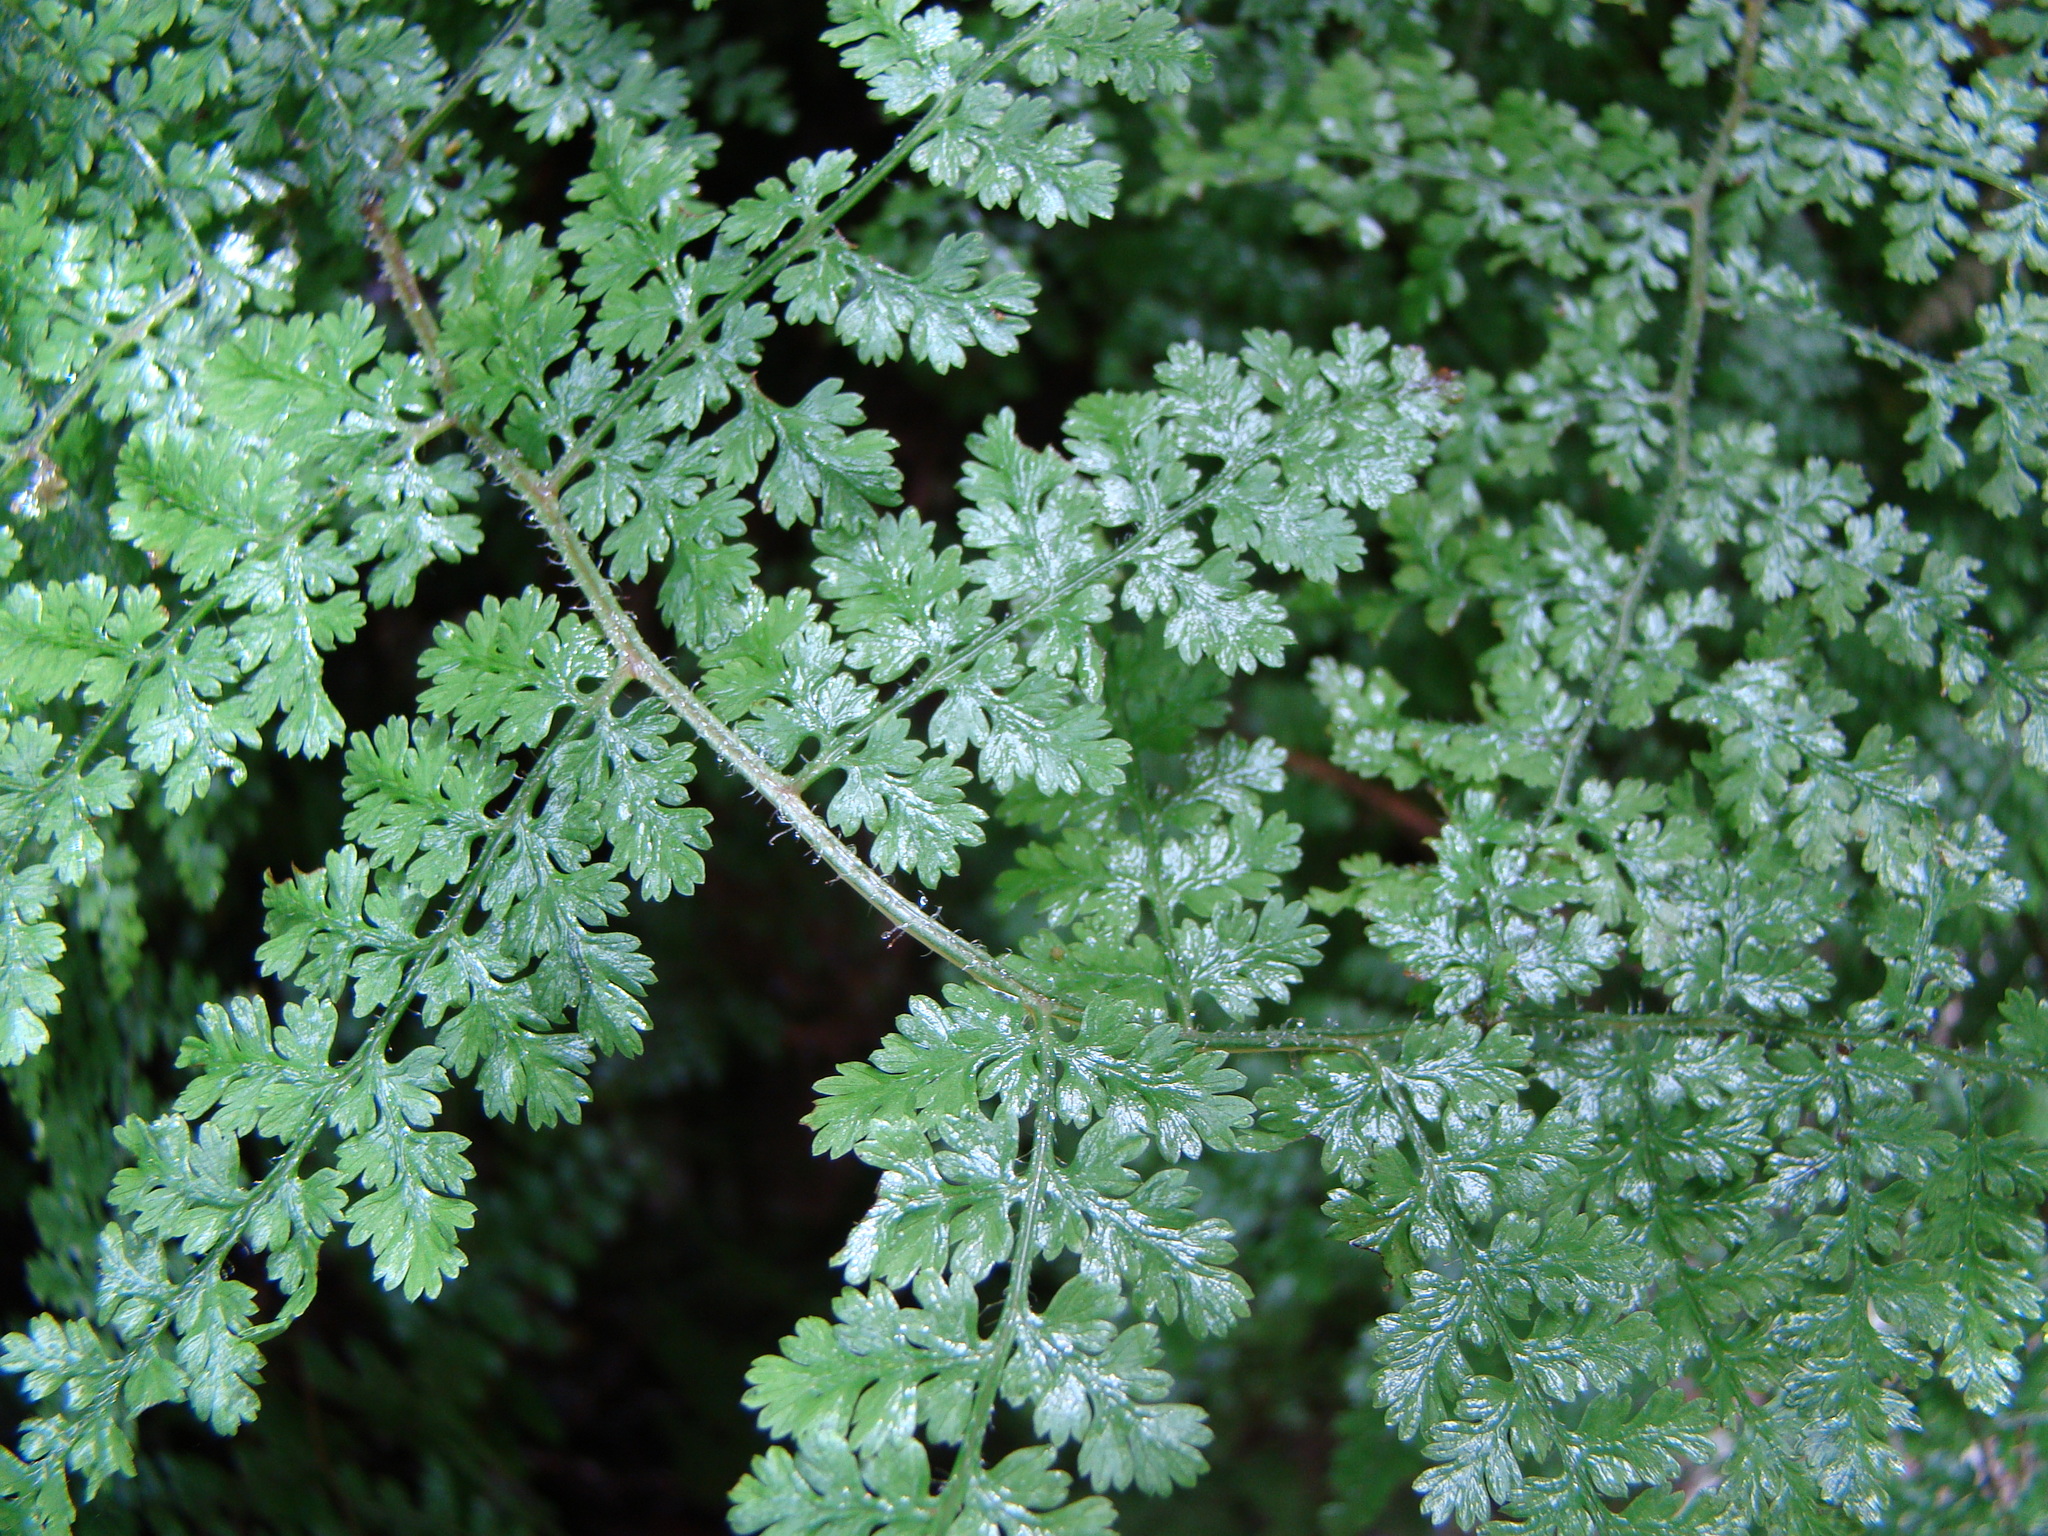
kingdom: Plantae
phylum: Tracheophyta
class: Polypodiopsida
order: Polypodiales
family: Dennstaedtiaceae
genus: Hypolepis
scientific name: Hypolepis millefolium
